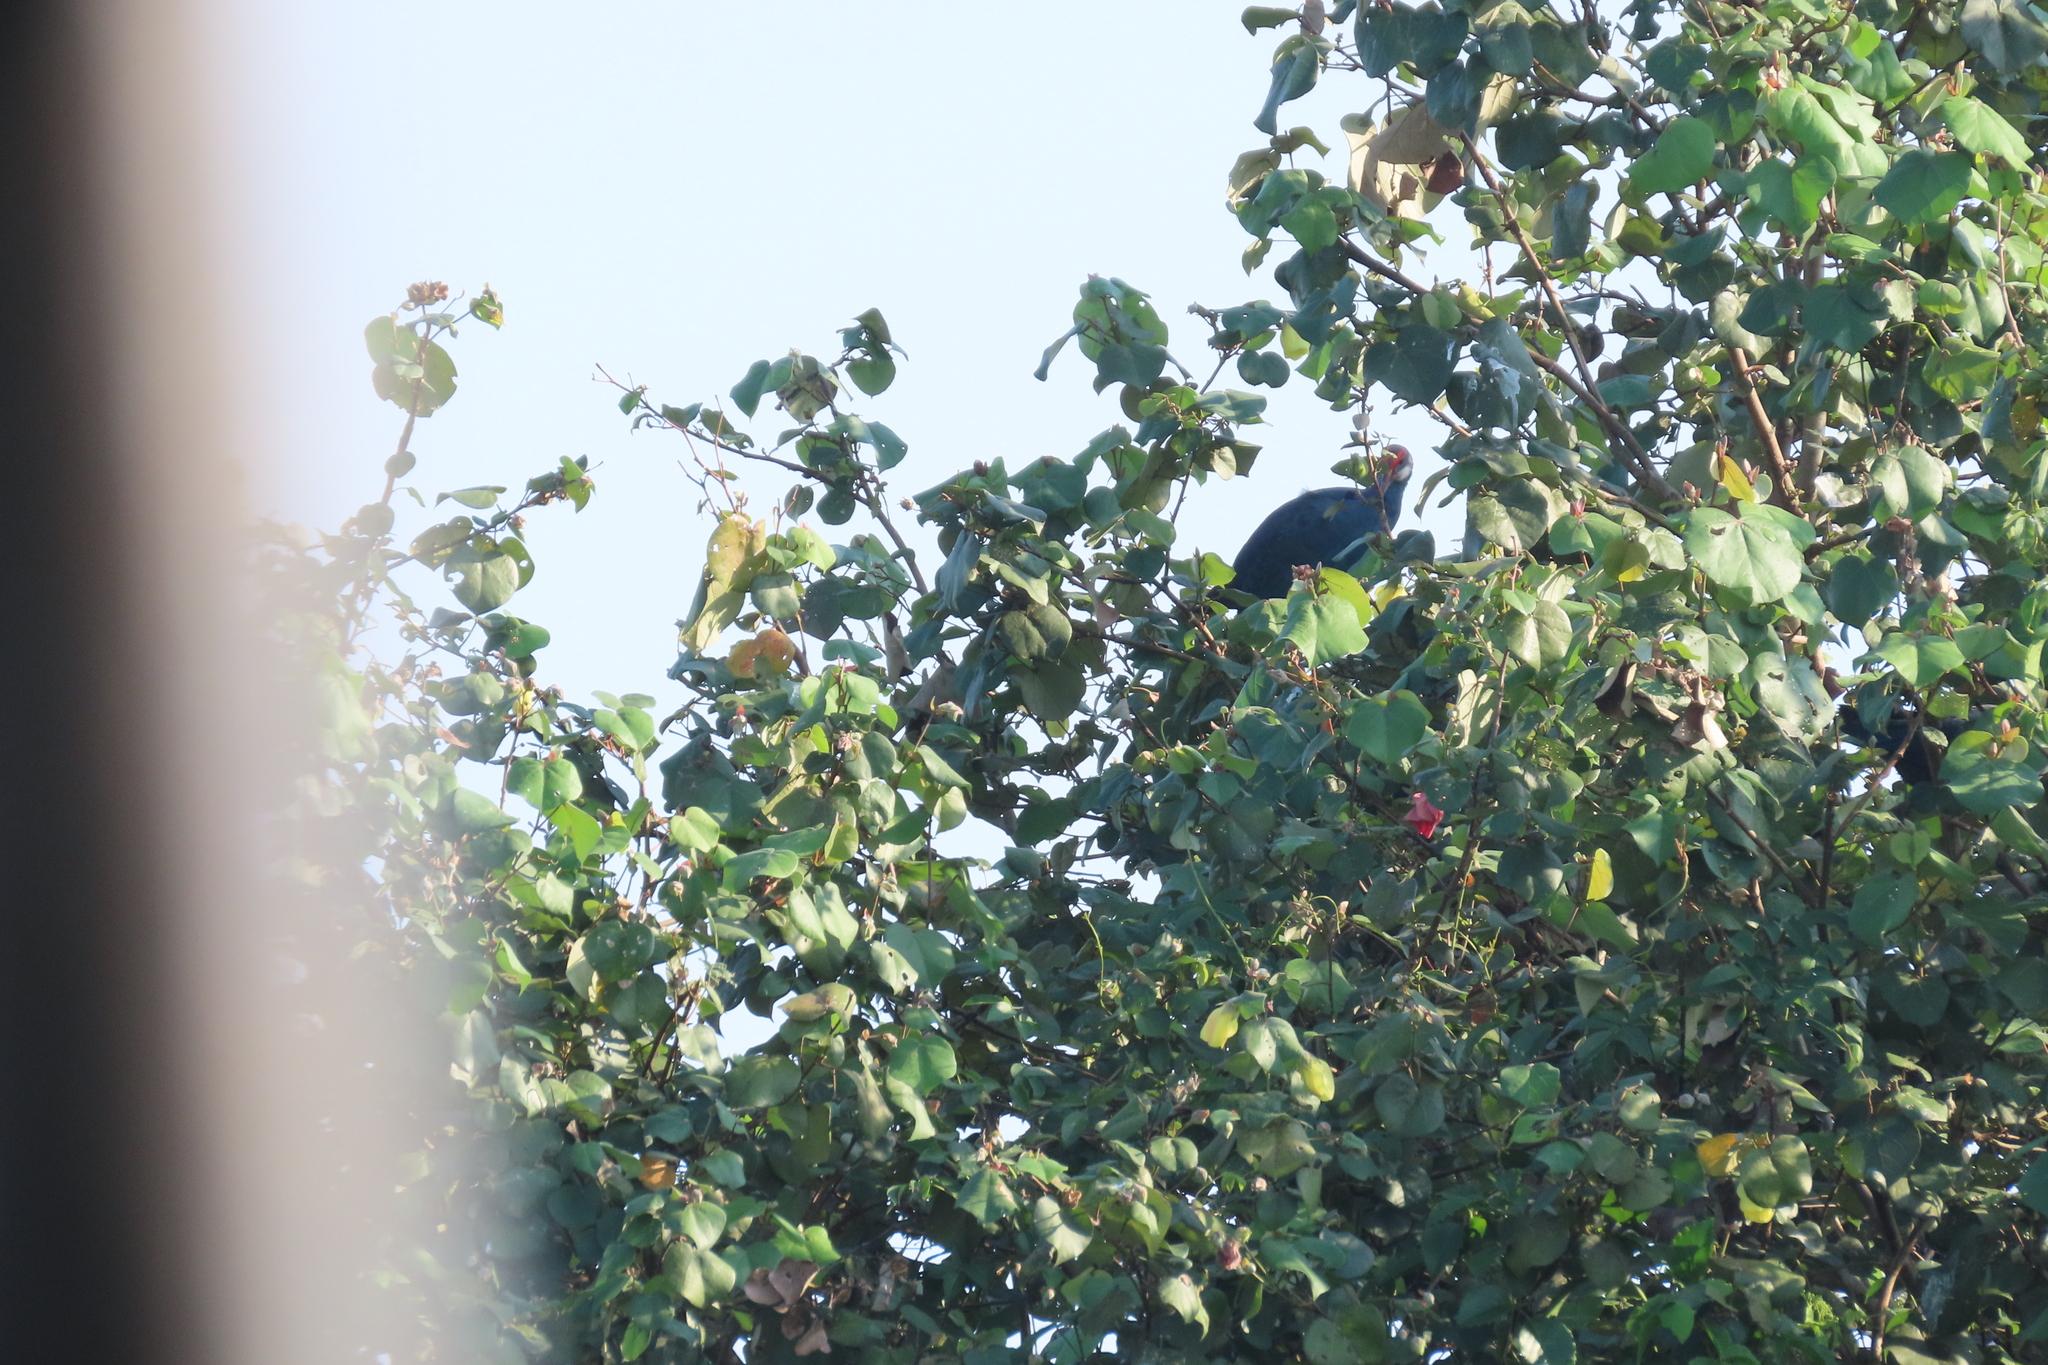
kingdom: Animalia
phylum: Chordata
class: Aves
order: Gruiformes
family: Rallidae
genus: Porphyrio
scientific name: Porphyrio porphyrio
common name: Purple swamphen
